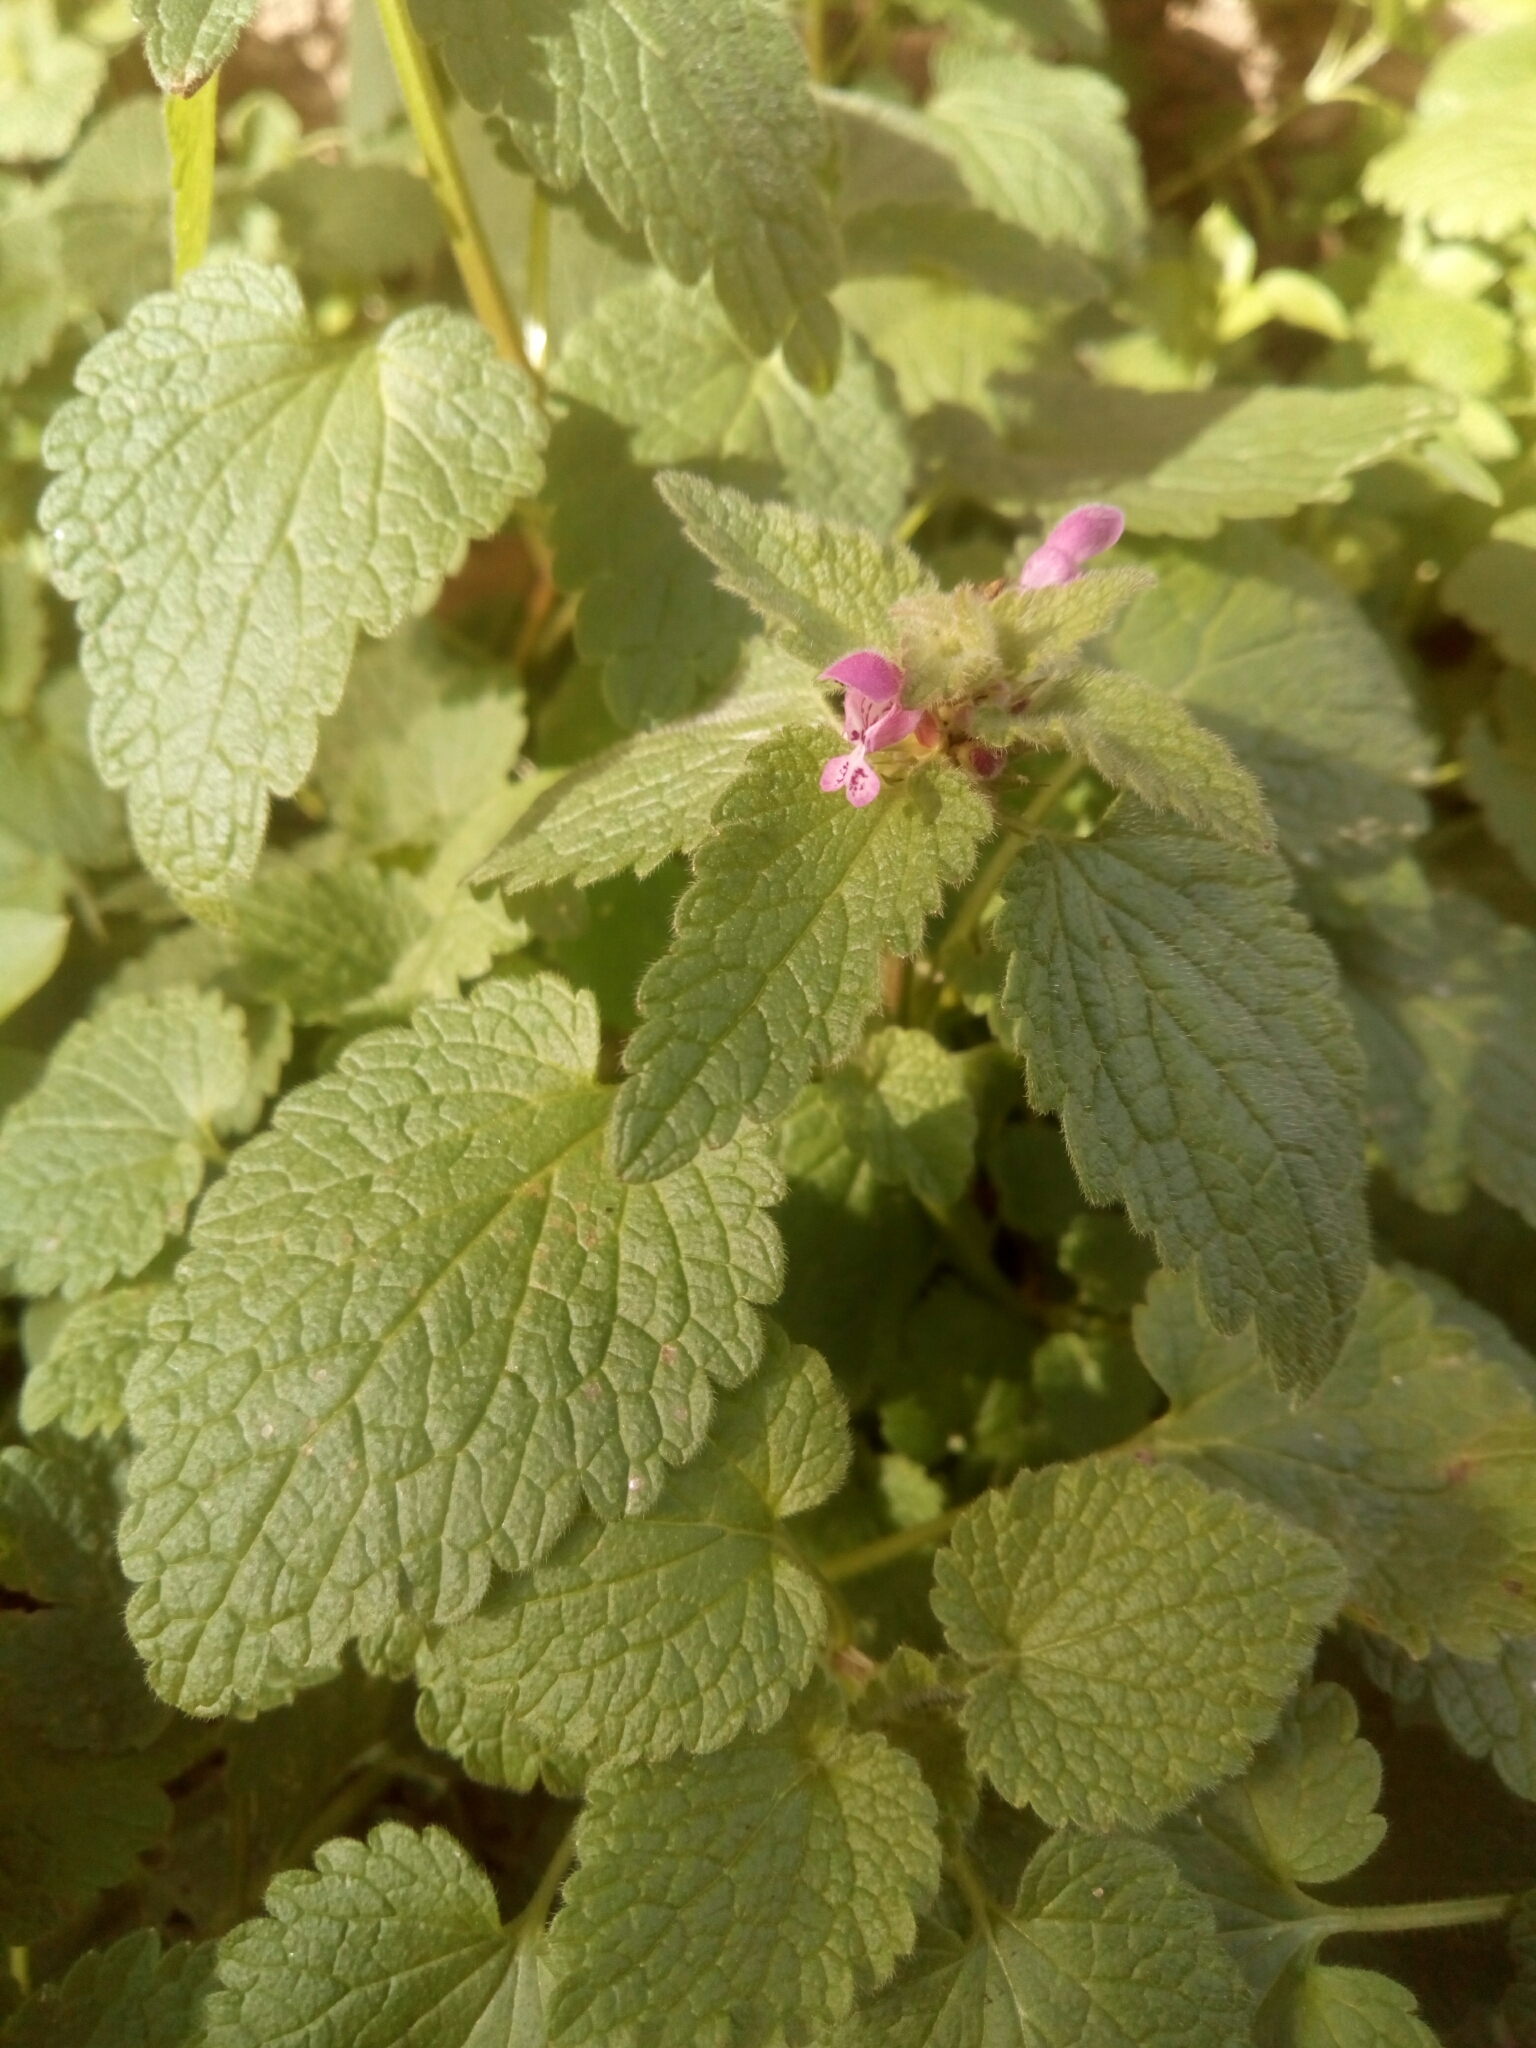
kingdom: Plantae
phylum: Tracheophyta
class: Magnoliopsida
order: Lamiales
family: Lamiaceae
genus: Lamium
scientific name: Lamium purpureum
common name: Red dead-nettle
